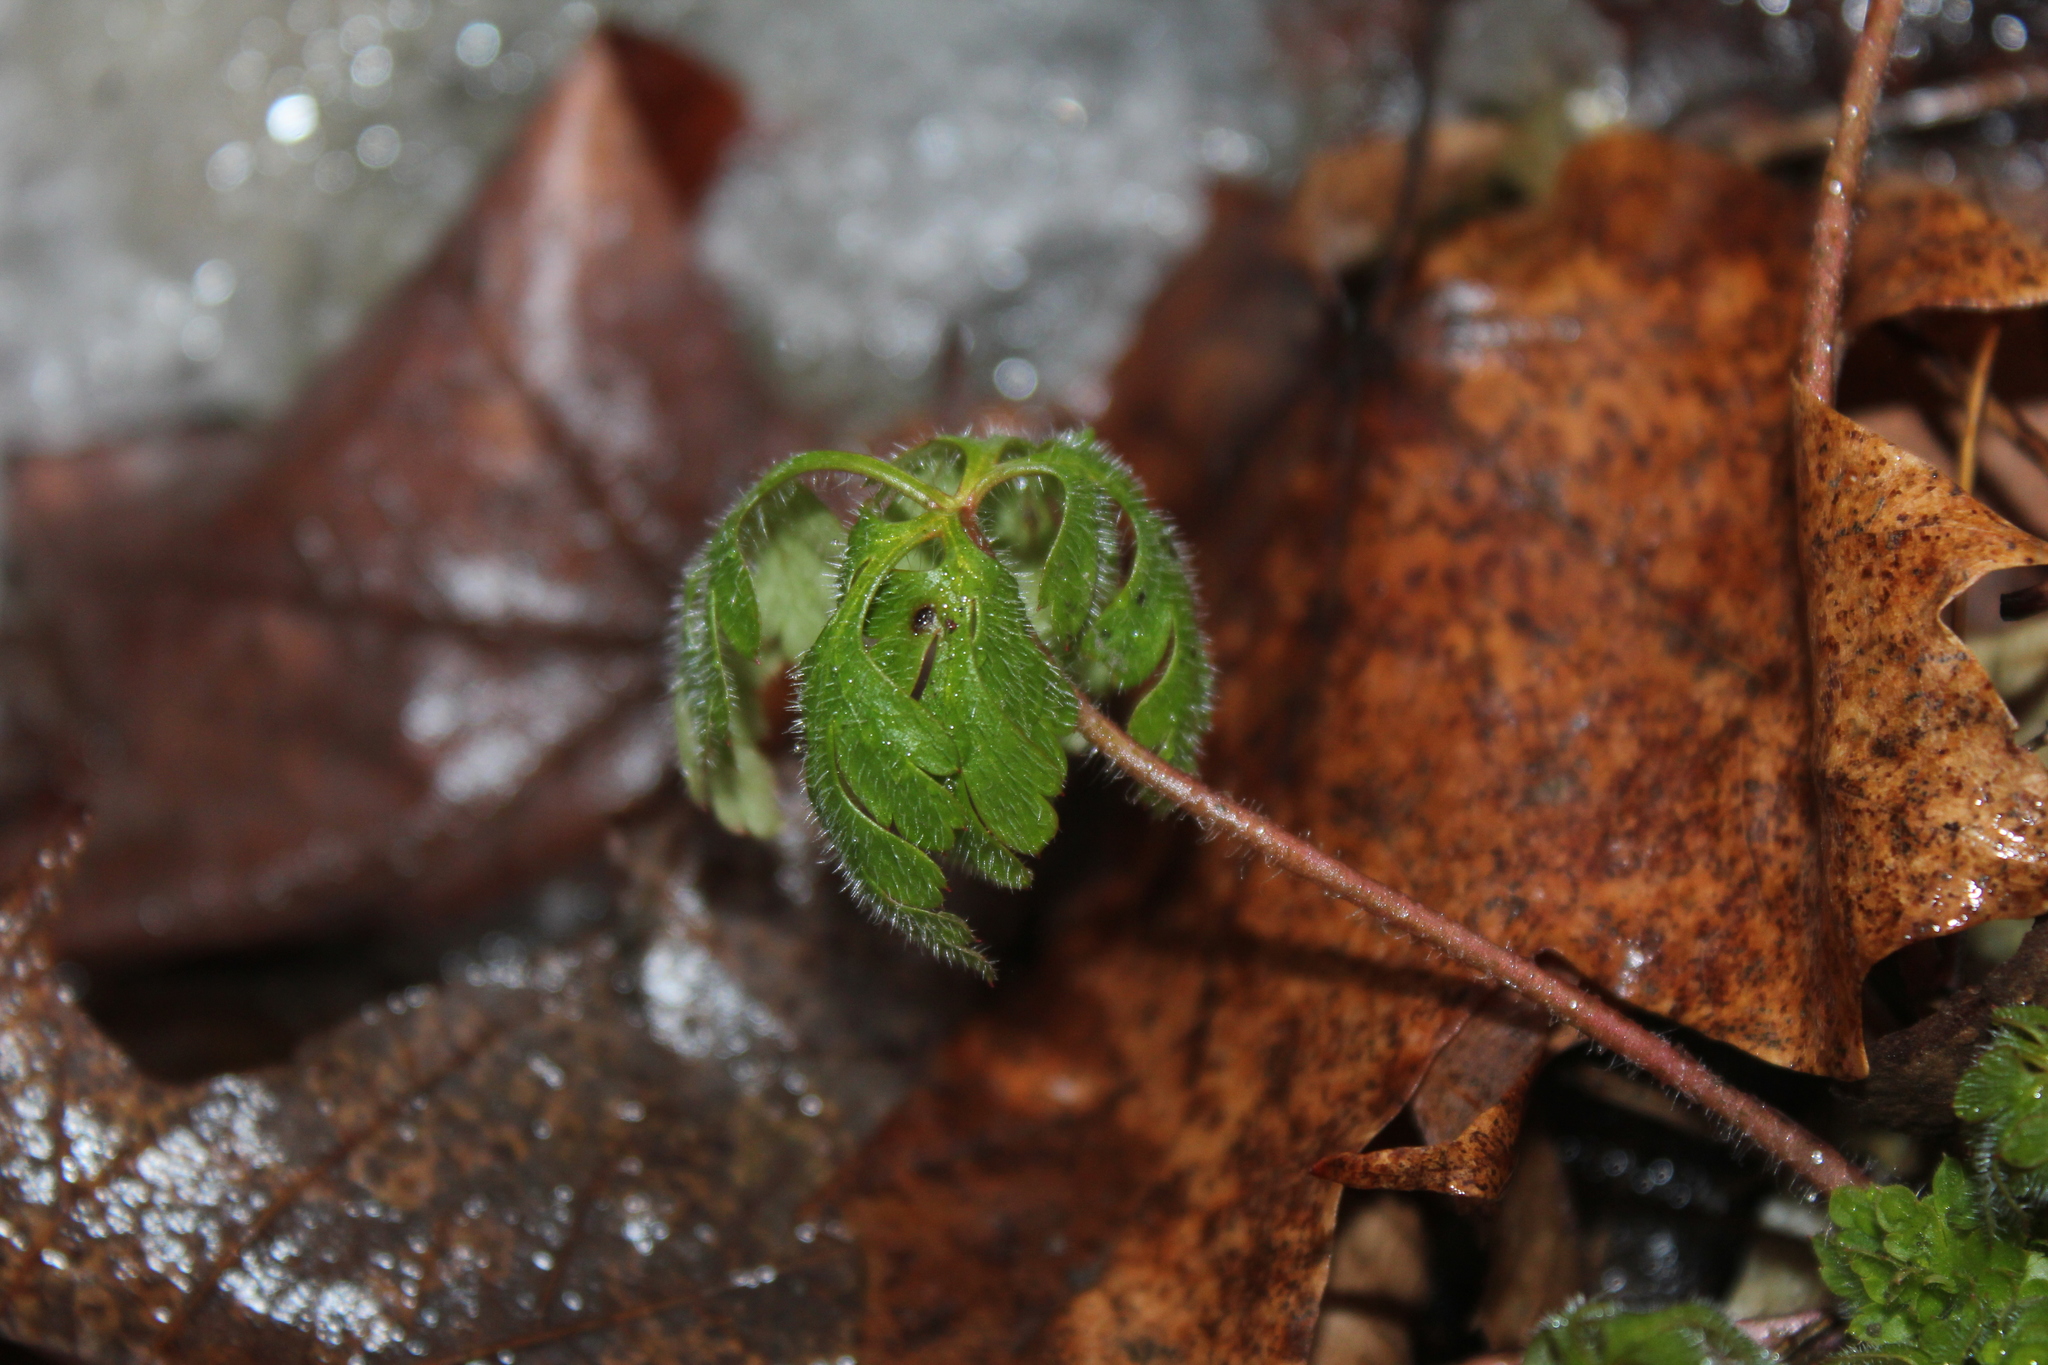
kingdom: Plantae
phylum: Tracheophyta
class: Magnoliopsida
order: Geraniales
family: Geraniaceae
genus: Geranium
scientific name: Geranium robertianum
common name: Herb-robert
